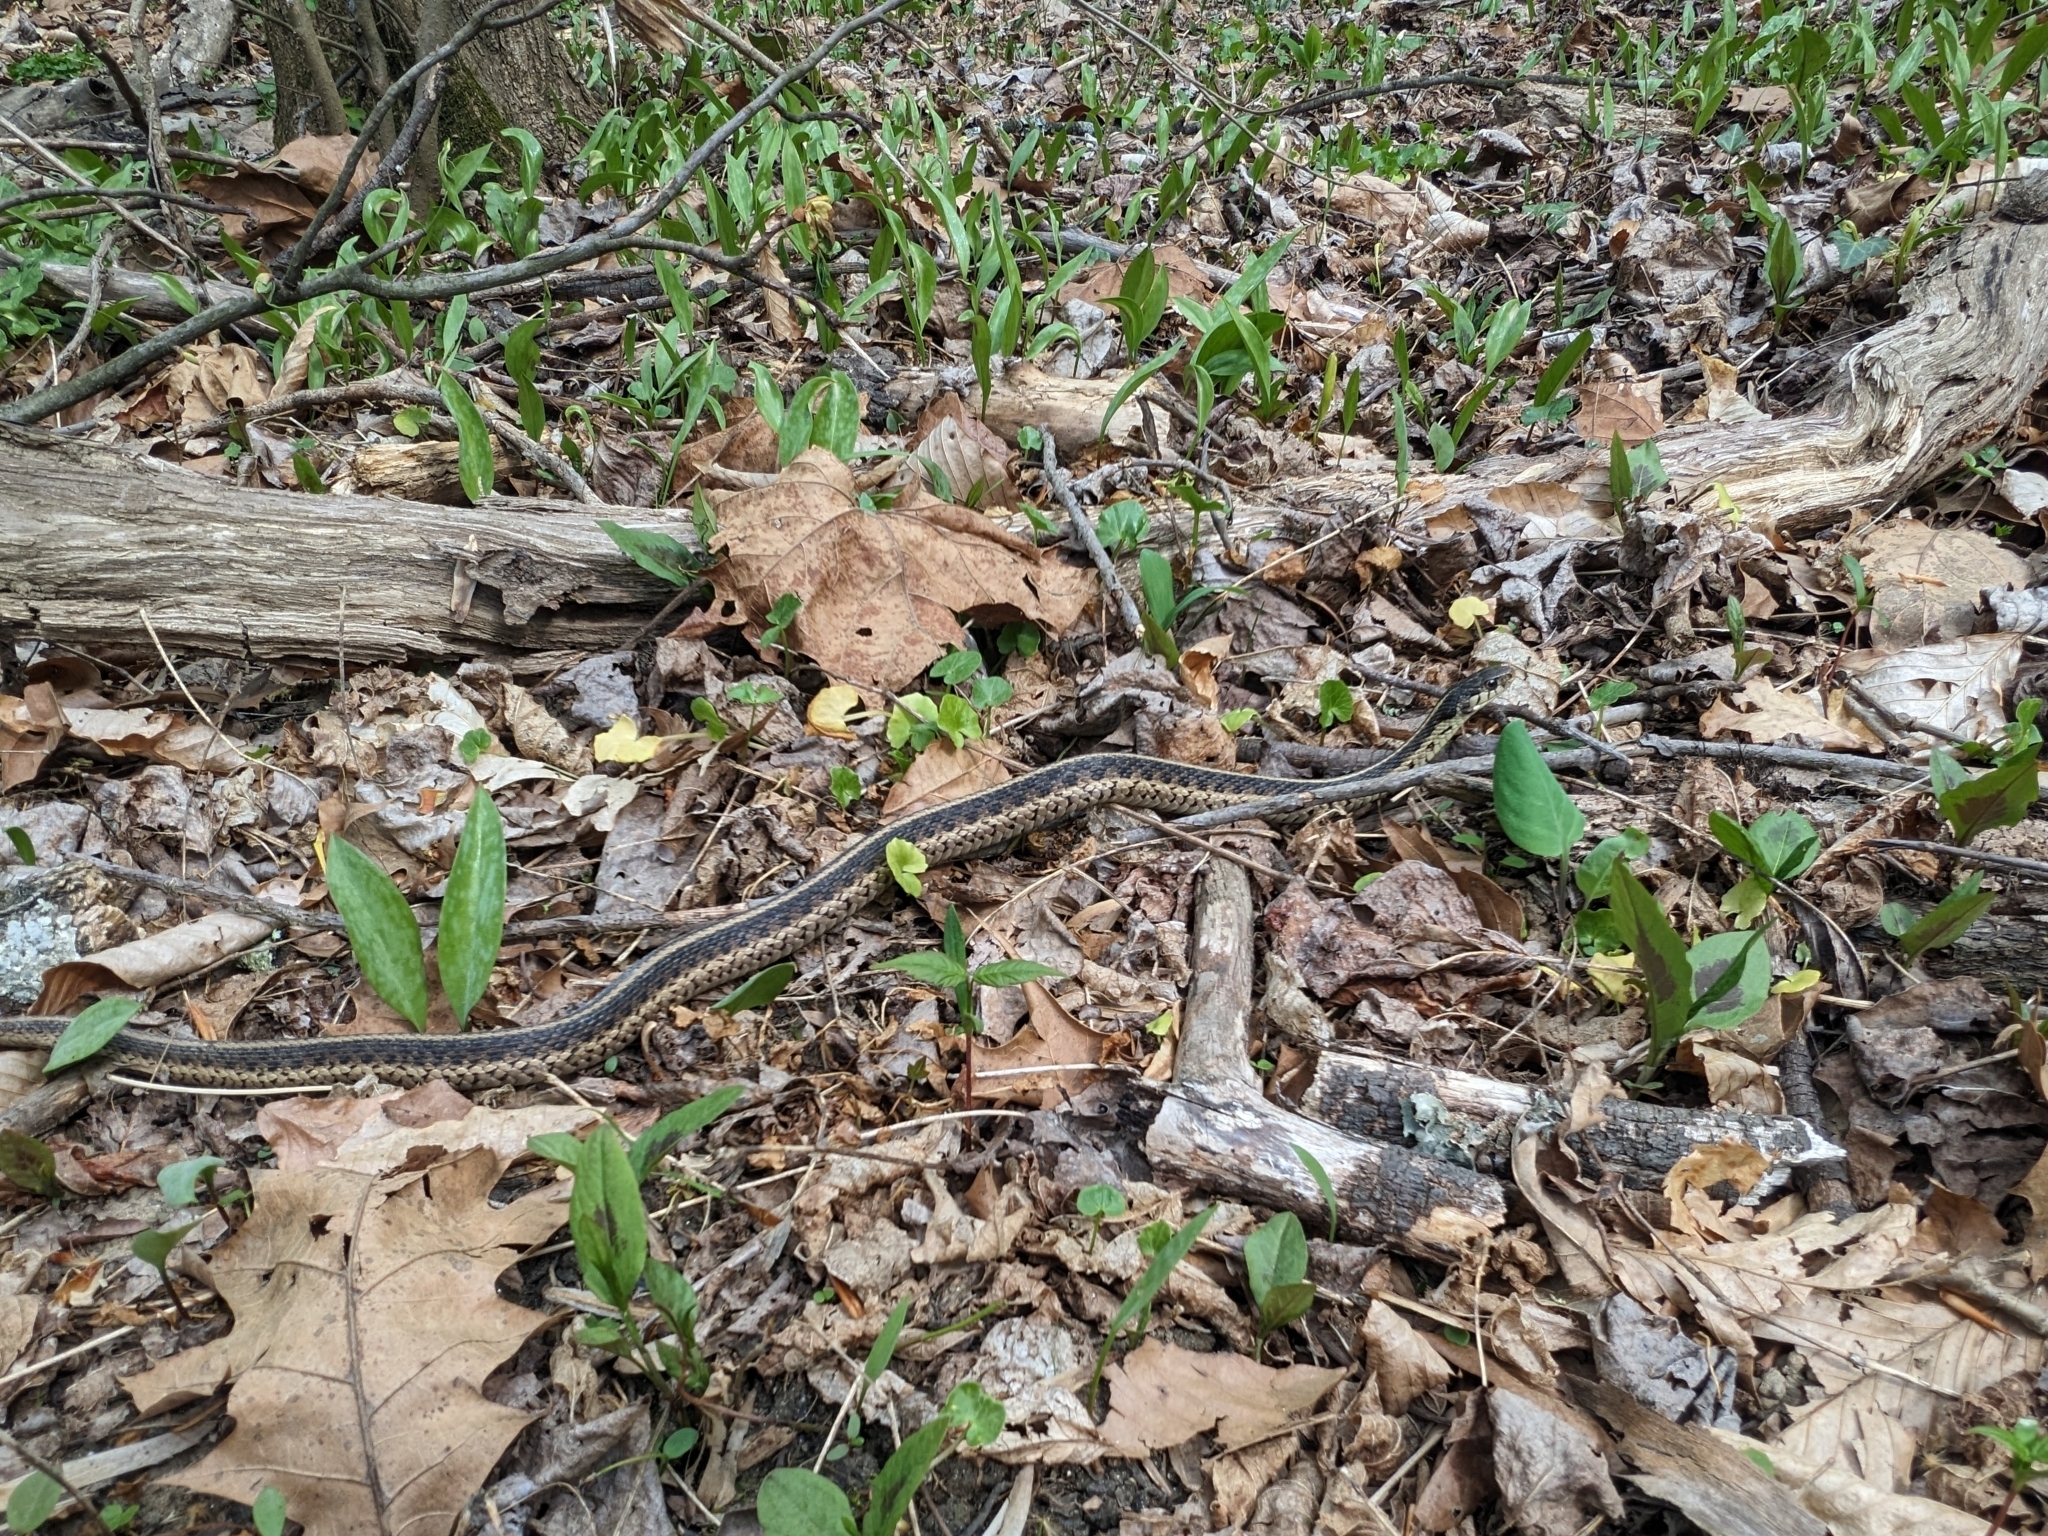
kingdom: Animalia
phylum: Chordata
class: Squamata
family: Colubridae
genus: Thamnophis
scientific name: Thamnophis sirtalis
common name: Common garter snake
